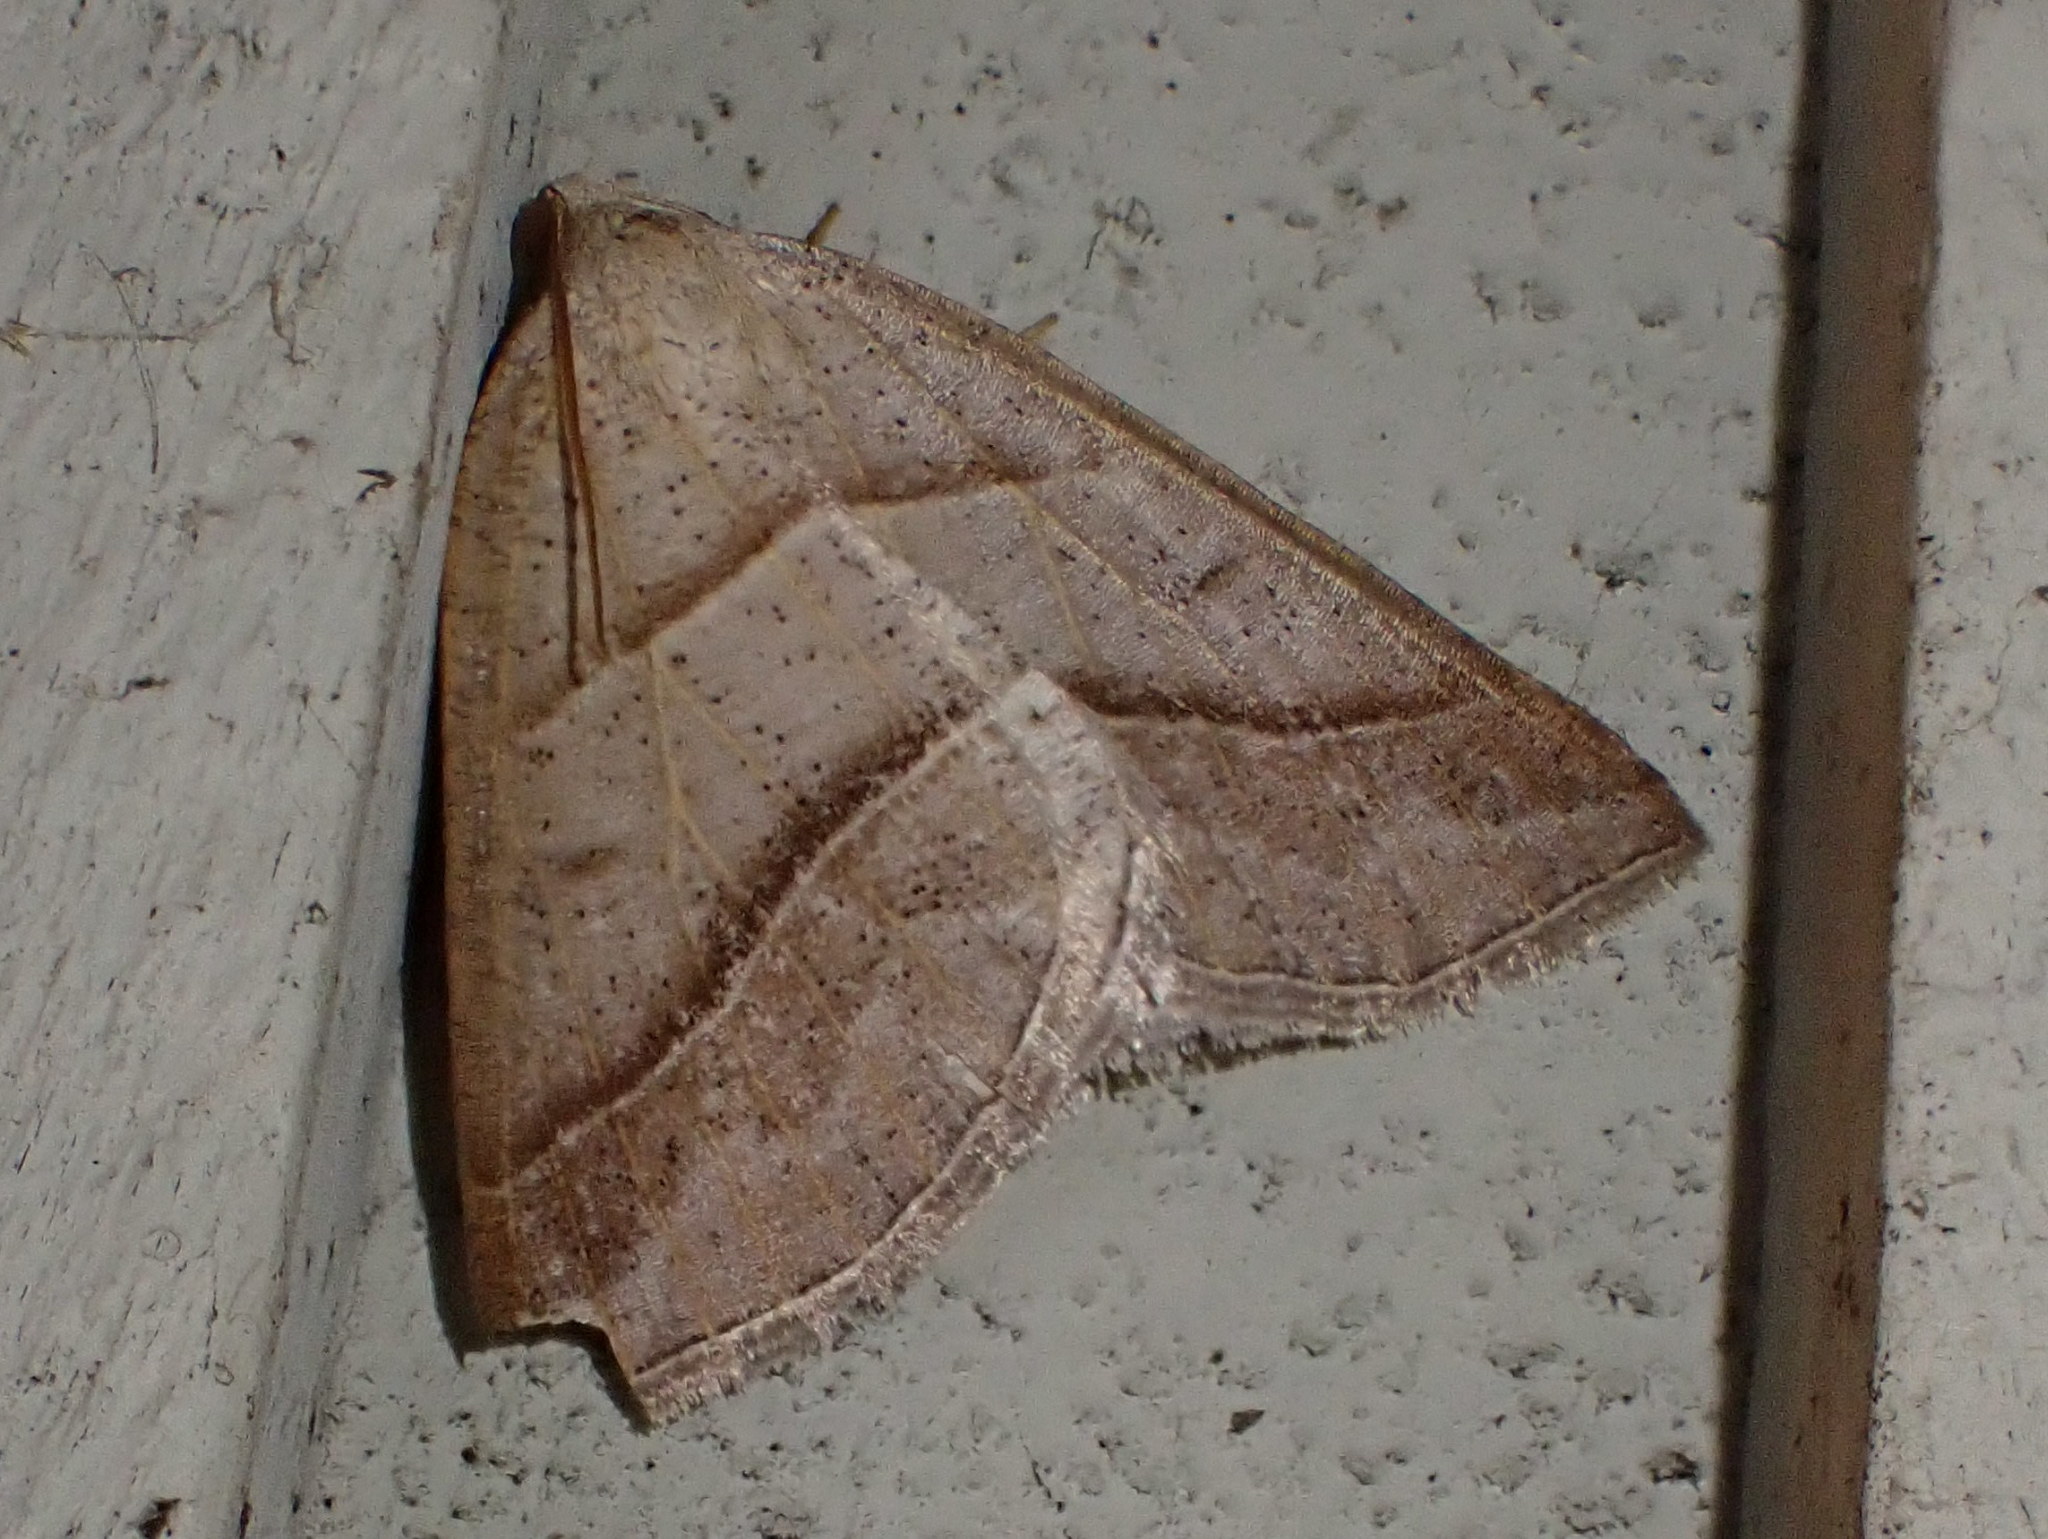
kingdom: Animalia
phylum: Arthropoda
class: Insecta
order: Lepidoptera
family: Pterophoridae
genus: Pterophorus
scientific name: Pterophorus Petrophora subaequaria
